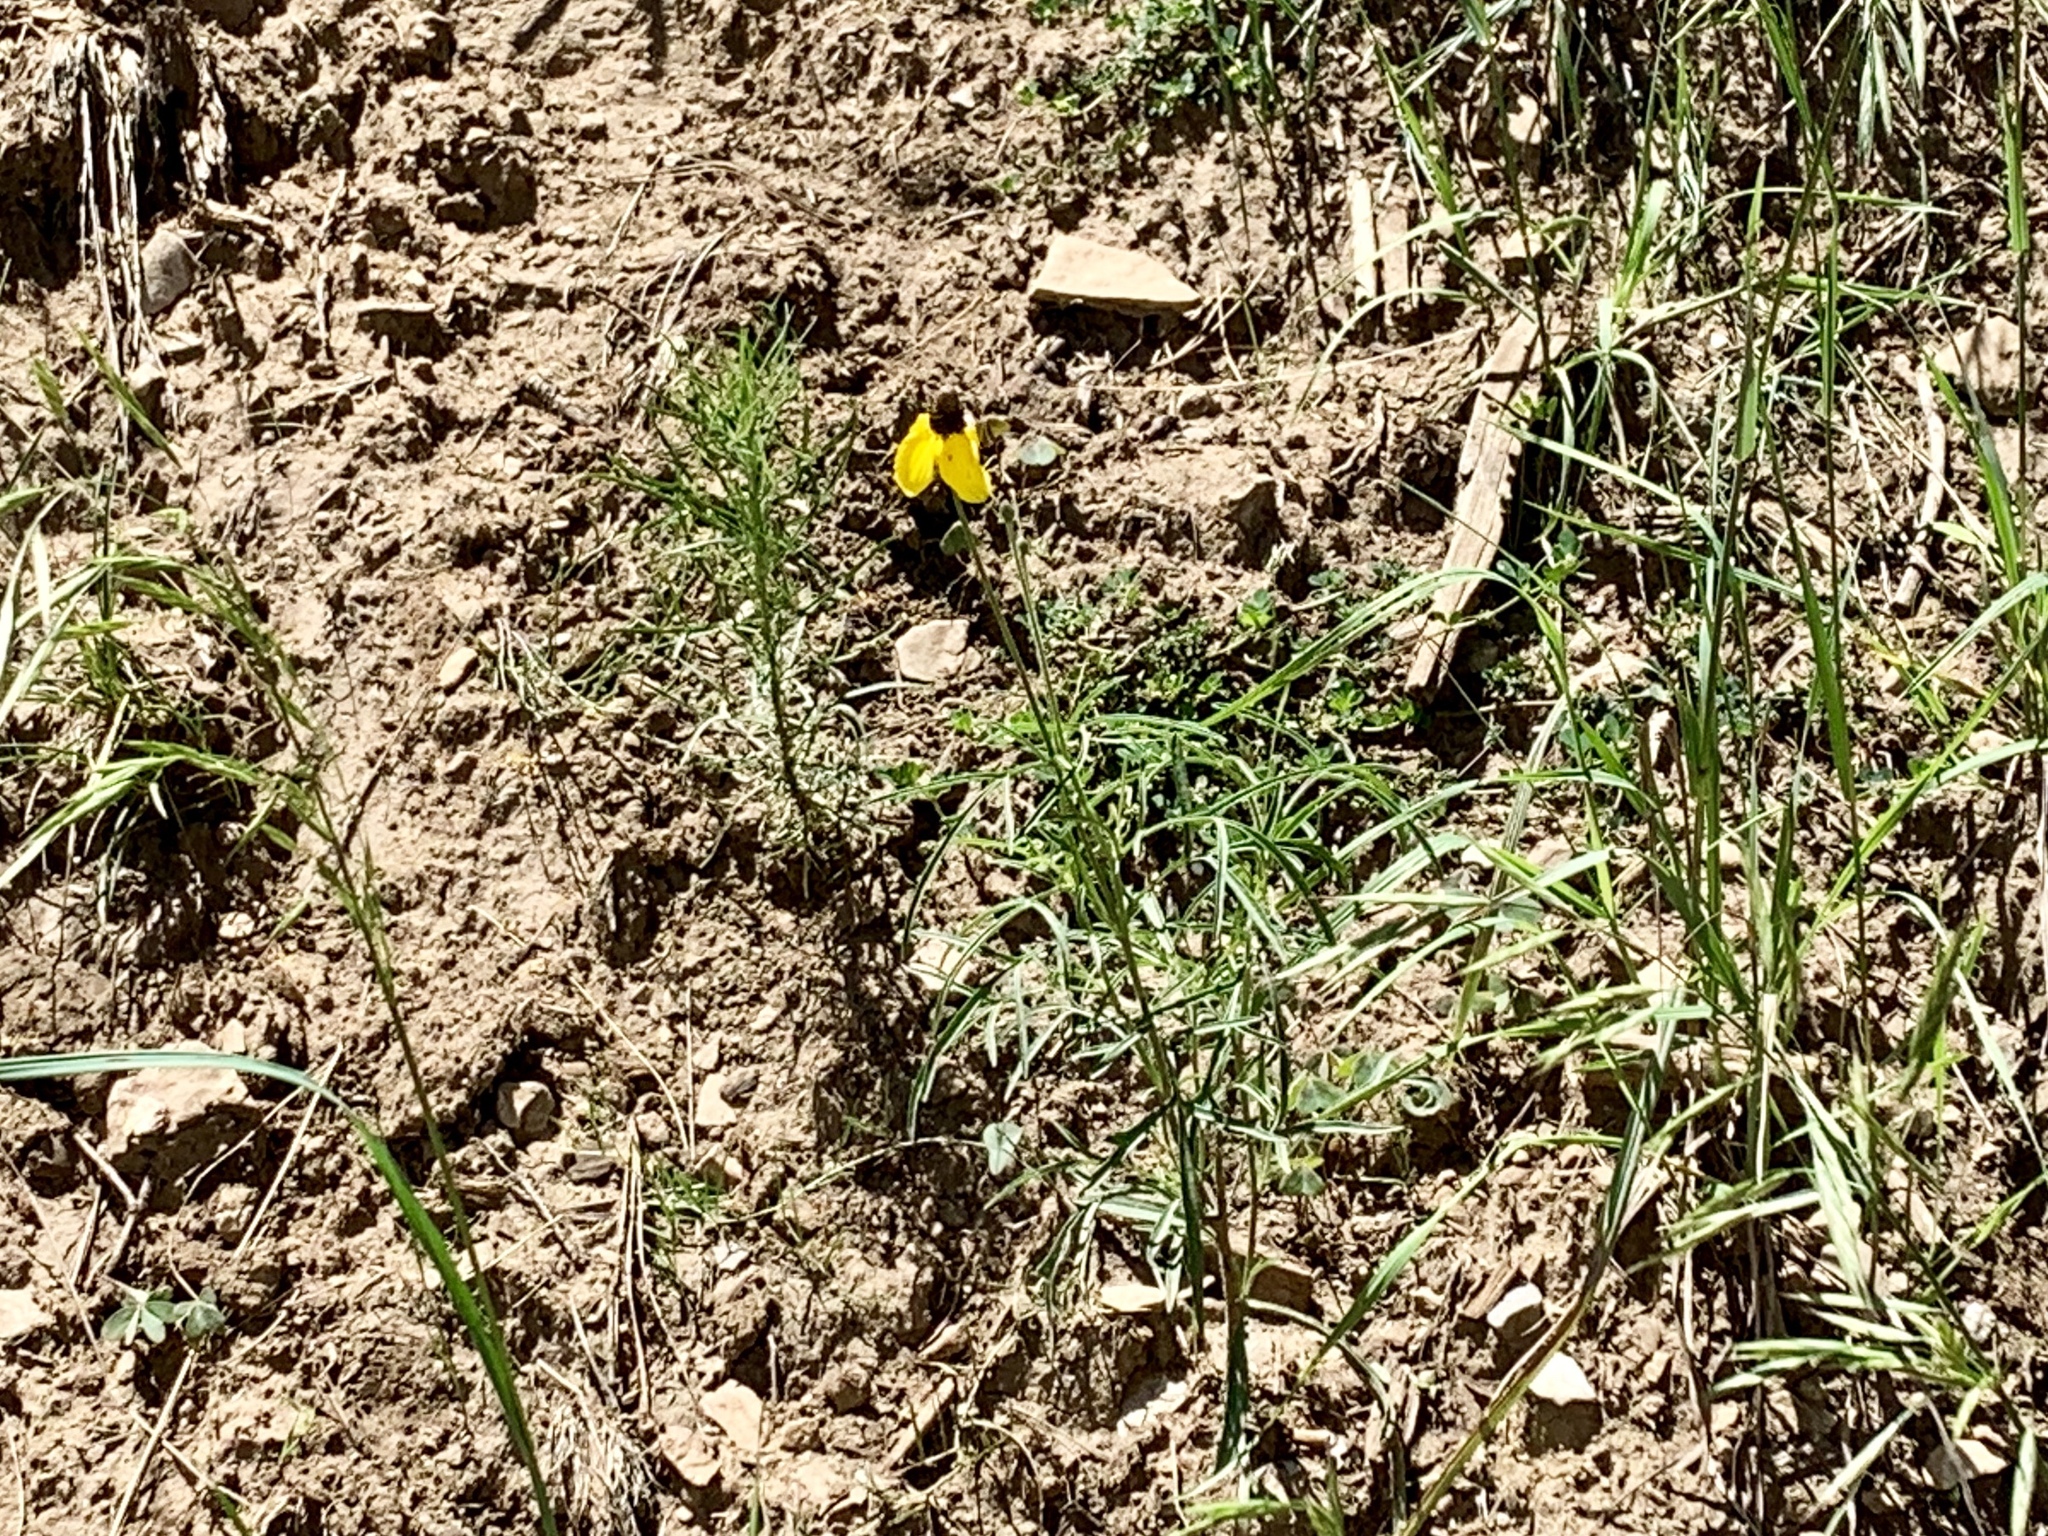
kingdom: Plantae
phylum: Tracheophyta
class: Magnoliopsida
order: Asterales
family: Asteraceae
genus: Ratibida
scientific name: Ratibida columnifera
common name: Prairie coneflower
